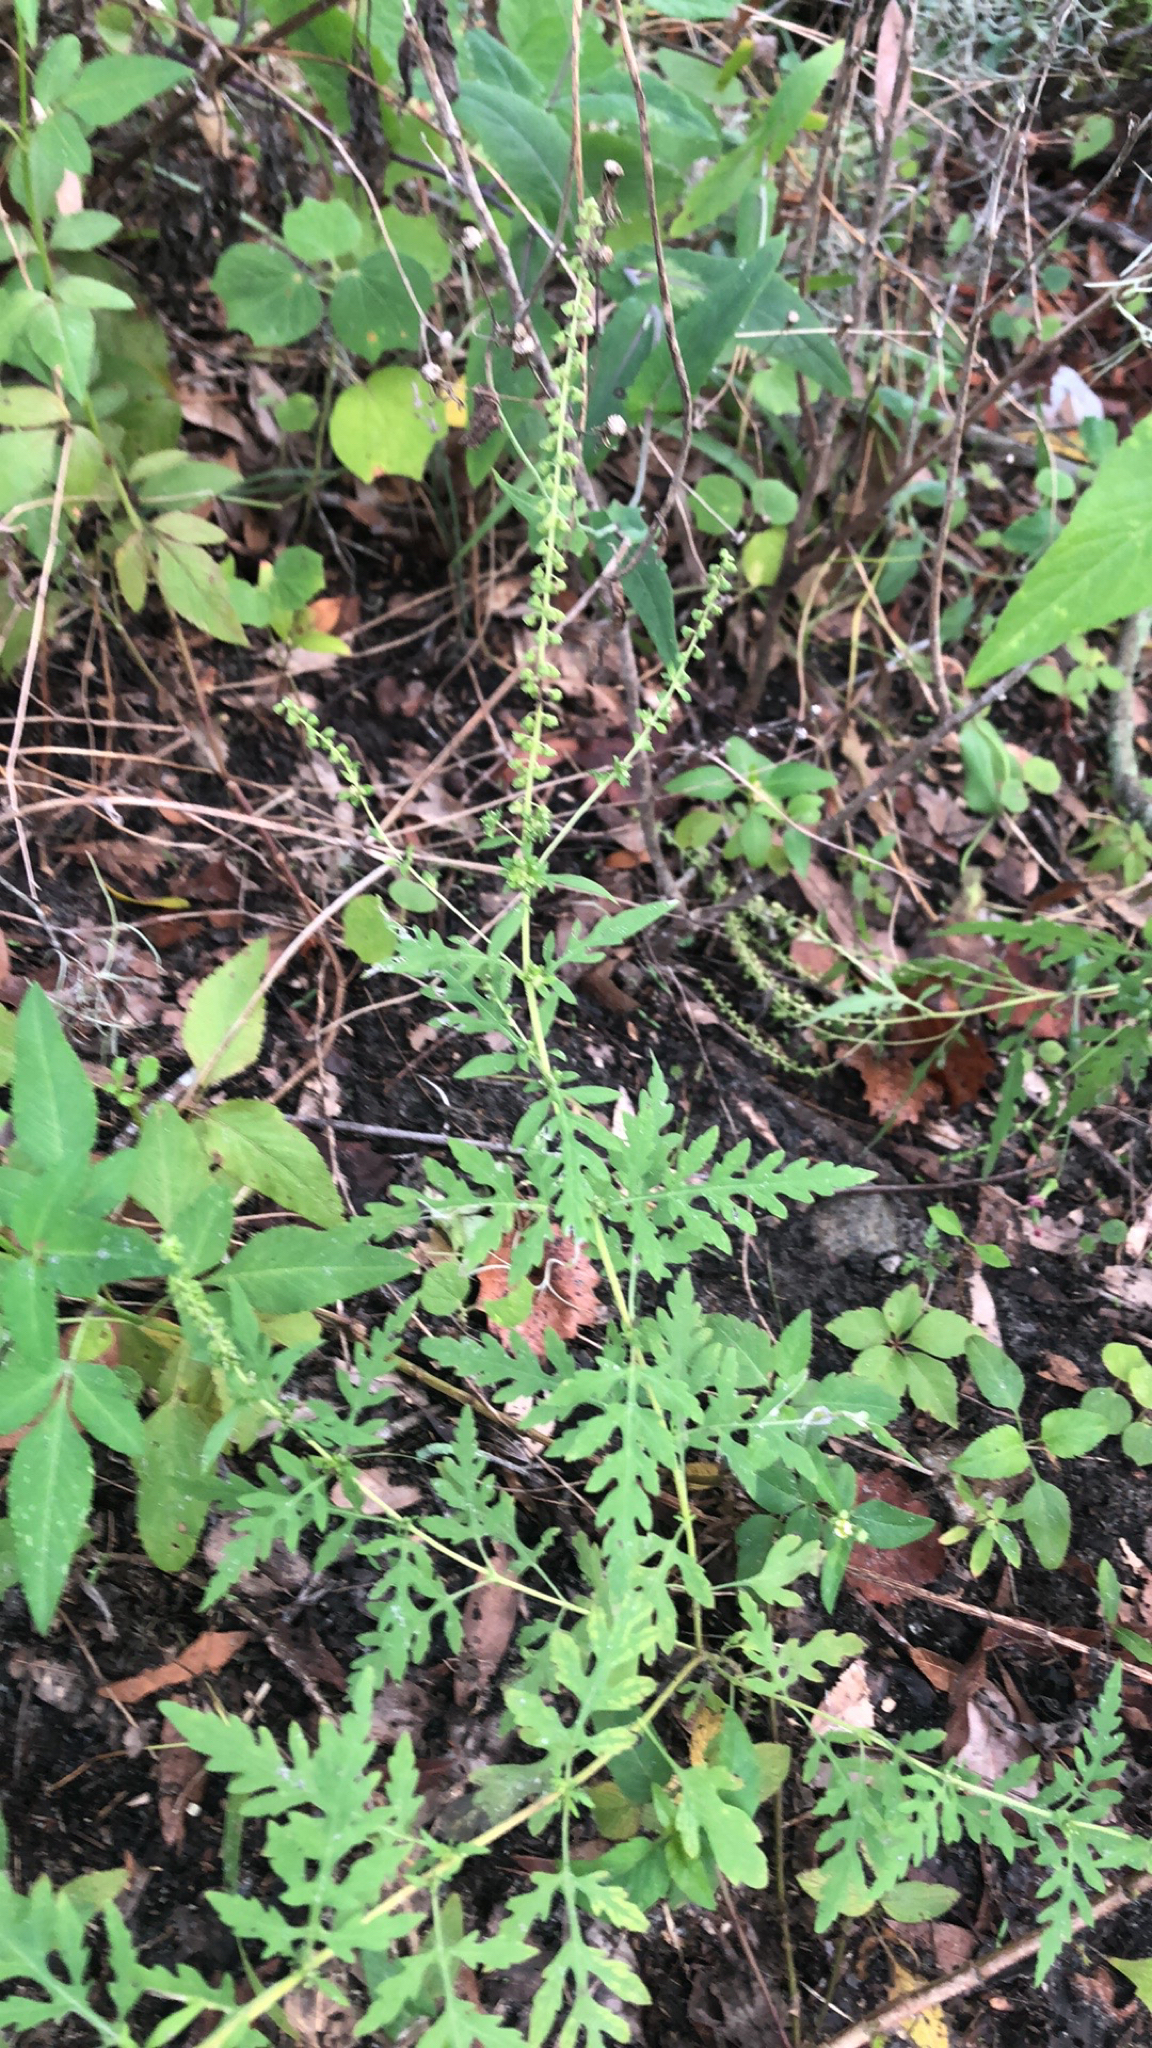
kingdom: Plantae
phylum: Tracheophyta
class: Magnoliopsida
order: Asterales
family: Asteraceae
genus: Ambrosia
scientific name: Ambrosia artemisiifolia
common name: Annual ragweed
